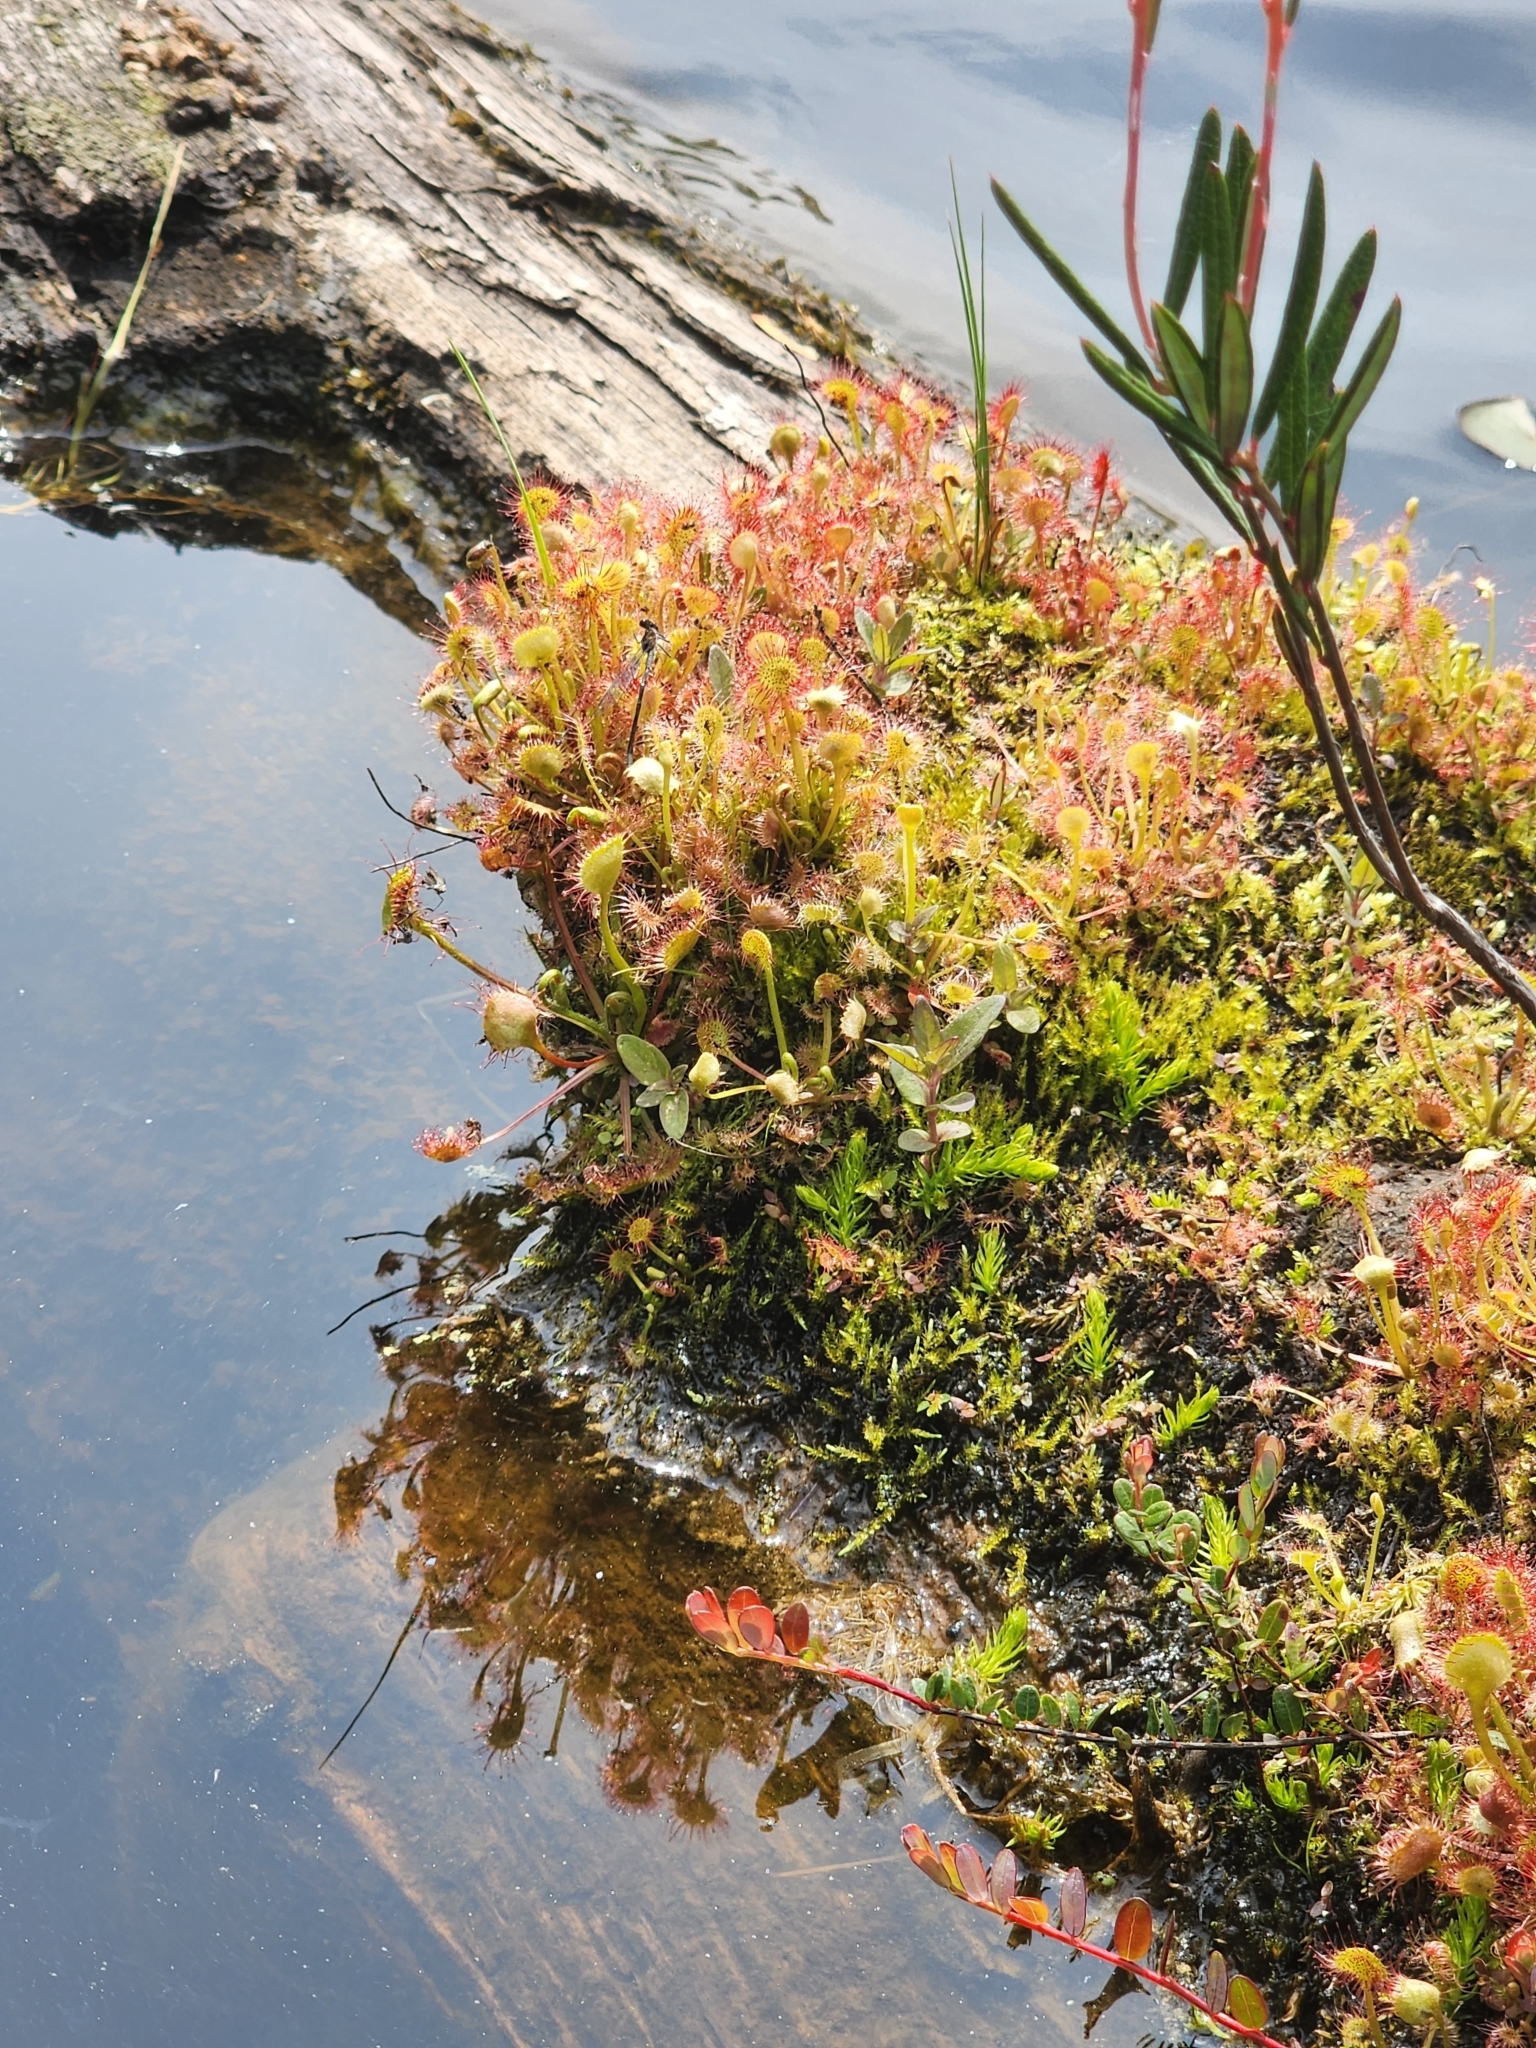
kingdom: Plantae
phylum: Tracheophyta
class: Magnoliopsida
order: Caryophyllales
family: Droseraceae
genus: Drosera
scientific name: Drosera rotundifolia
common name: Round-leaved sundew
